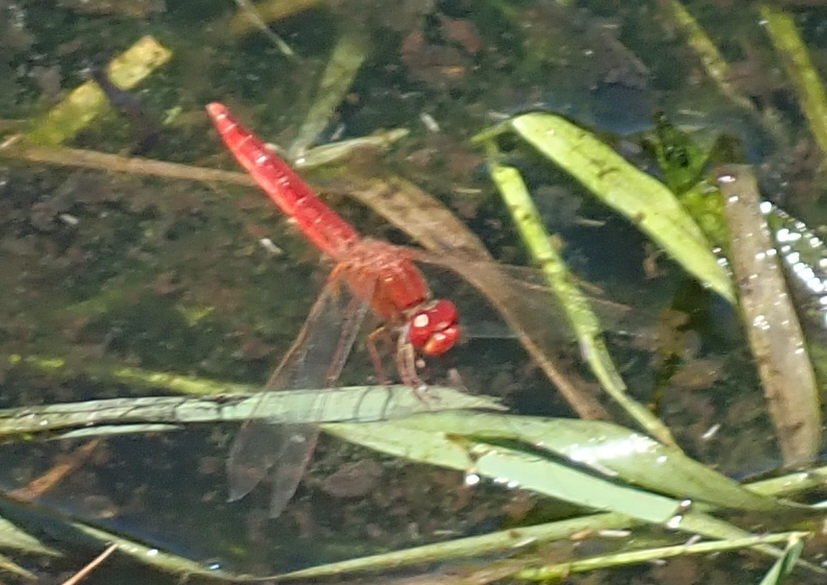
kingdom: Animalia
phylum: Arthropoda
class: Insecta
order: Odonata
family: Libellulidae
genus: Crocothemis
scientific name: Crocothemis erythraea
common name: Scarlet dragonfly
